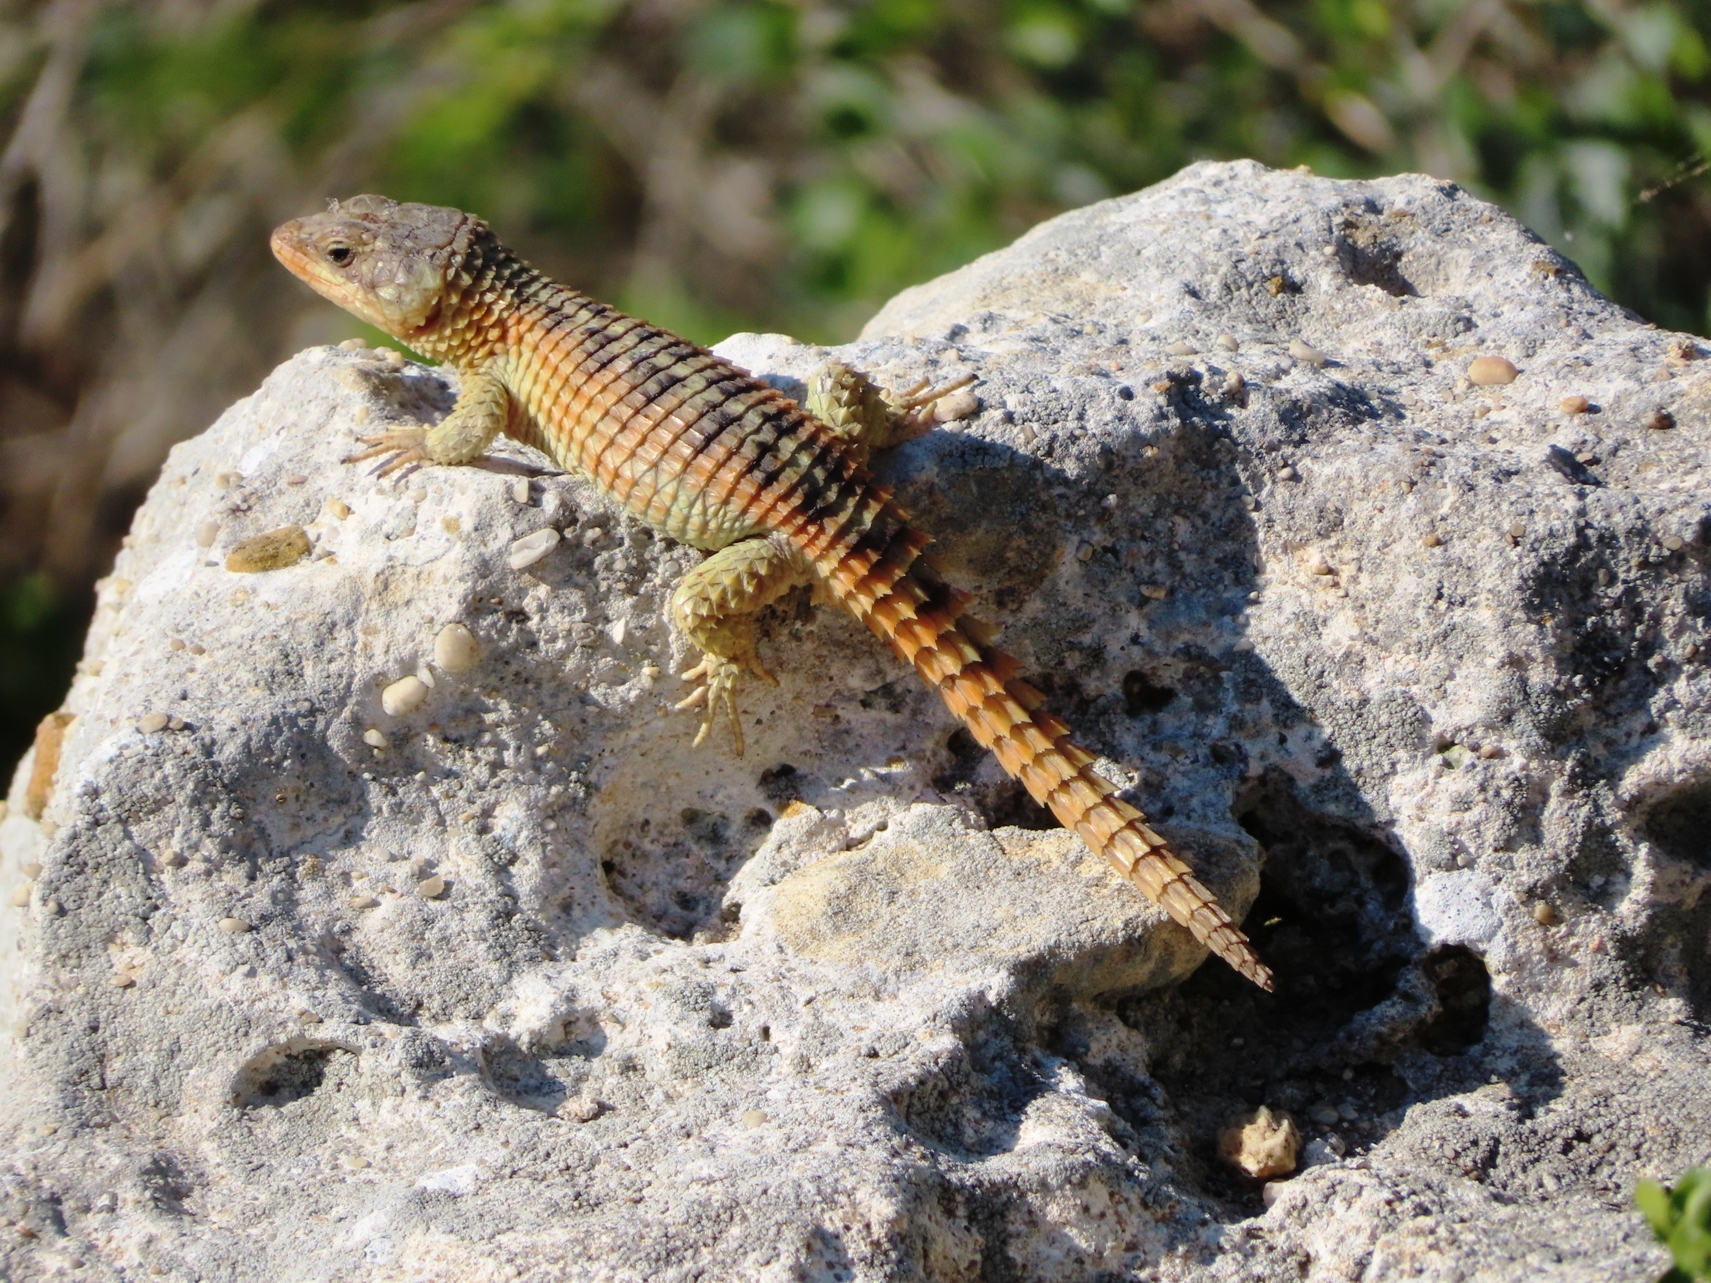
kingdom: Animalia
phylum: Chordata
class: Squamata
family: Cordylidae
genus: Cordylus
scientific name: Cordylus cordylus
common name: Cape girdled lizard
